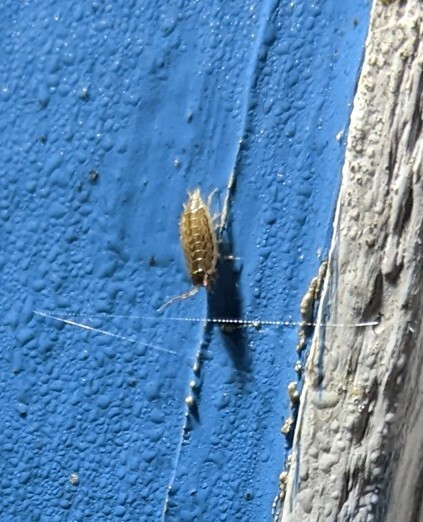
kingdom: Animalia
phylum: Arthropoda
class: Malacostraca
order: Isopoda
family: Philosciidae
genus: Philoscia
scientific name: Philoscia muscorum
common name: Common striped woodlouse
